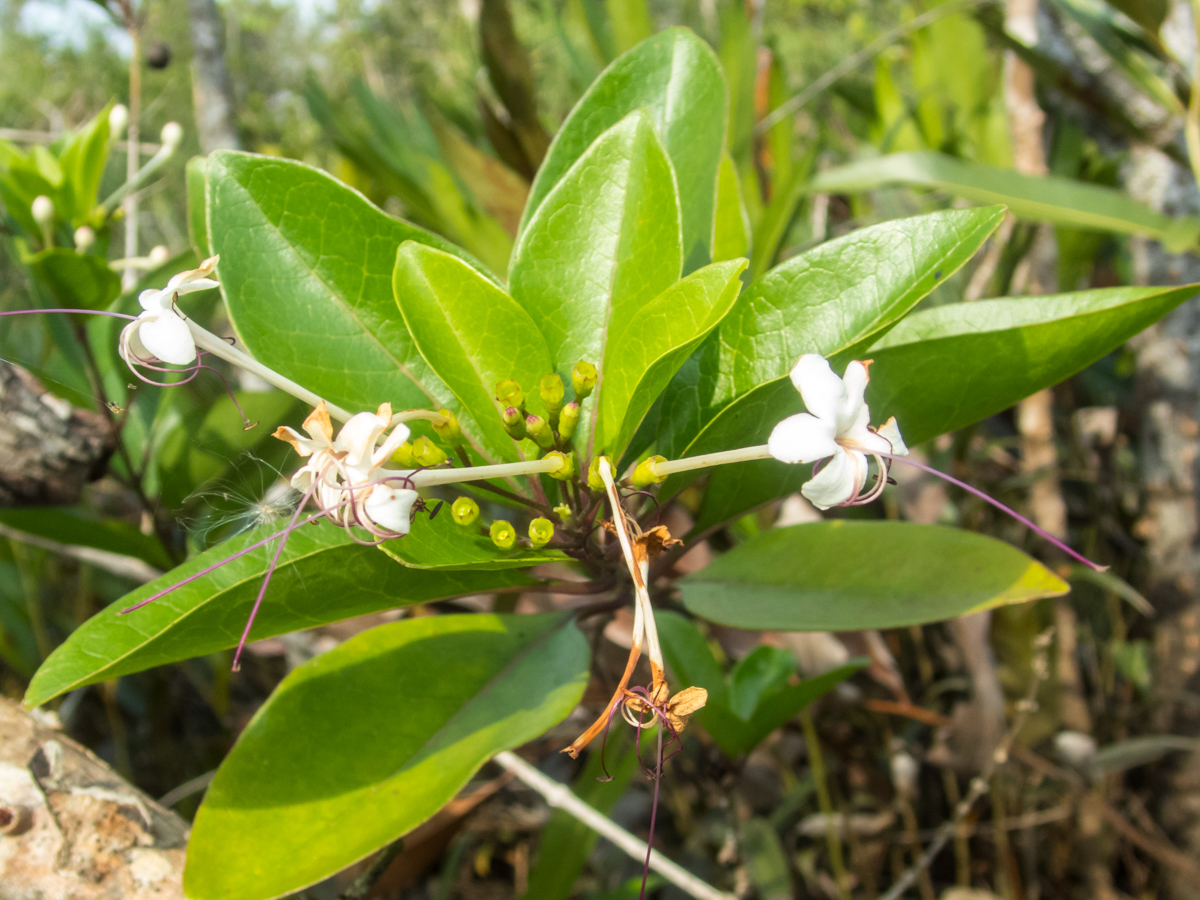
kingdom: Plantae
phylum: Tracheophyta
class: Magnoliopsida
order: Lamiales
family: Lamiaceae
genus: Volkameria
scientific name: Volkameria inermis
